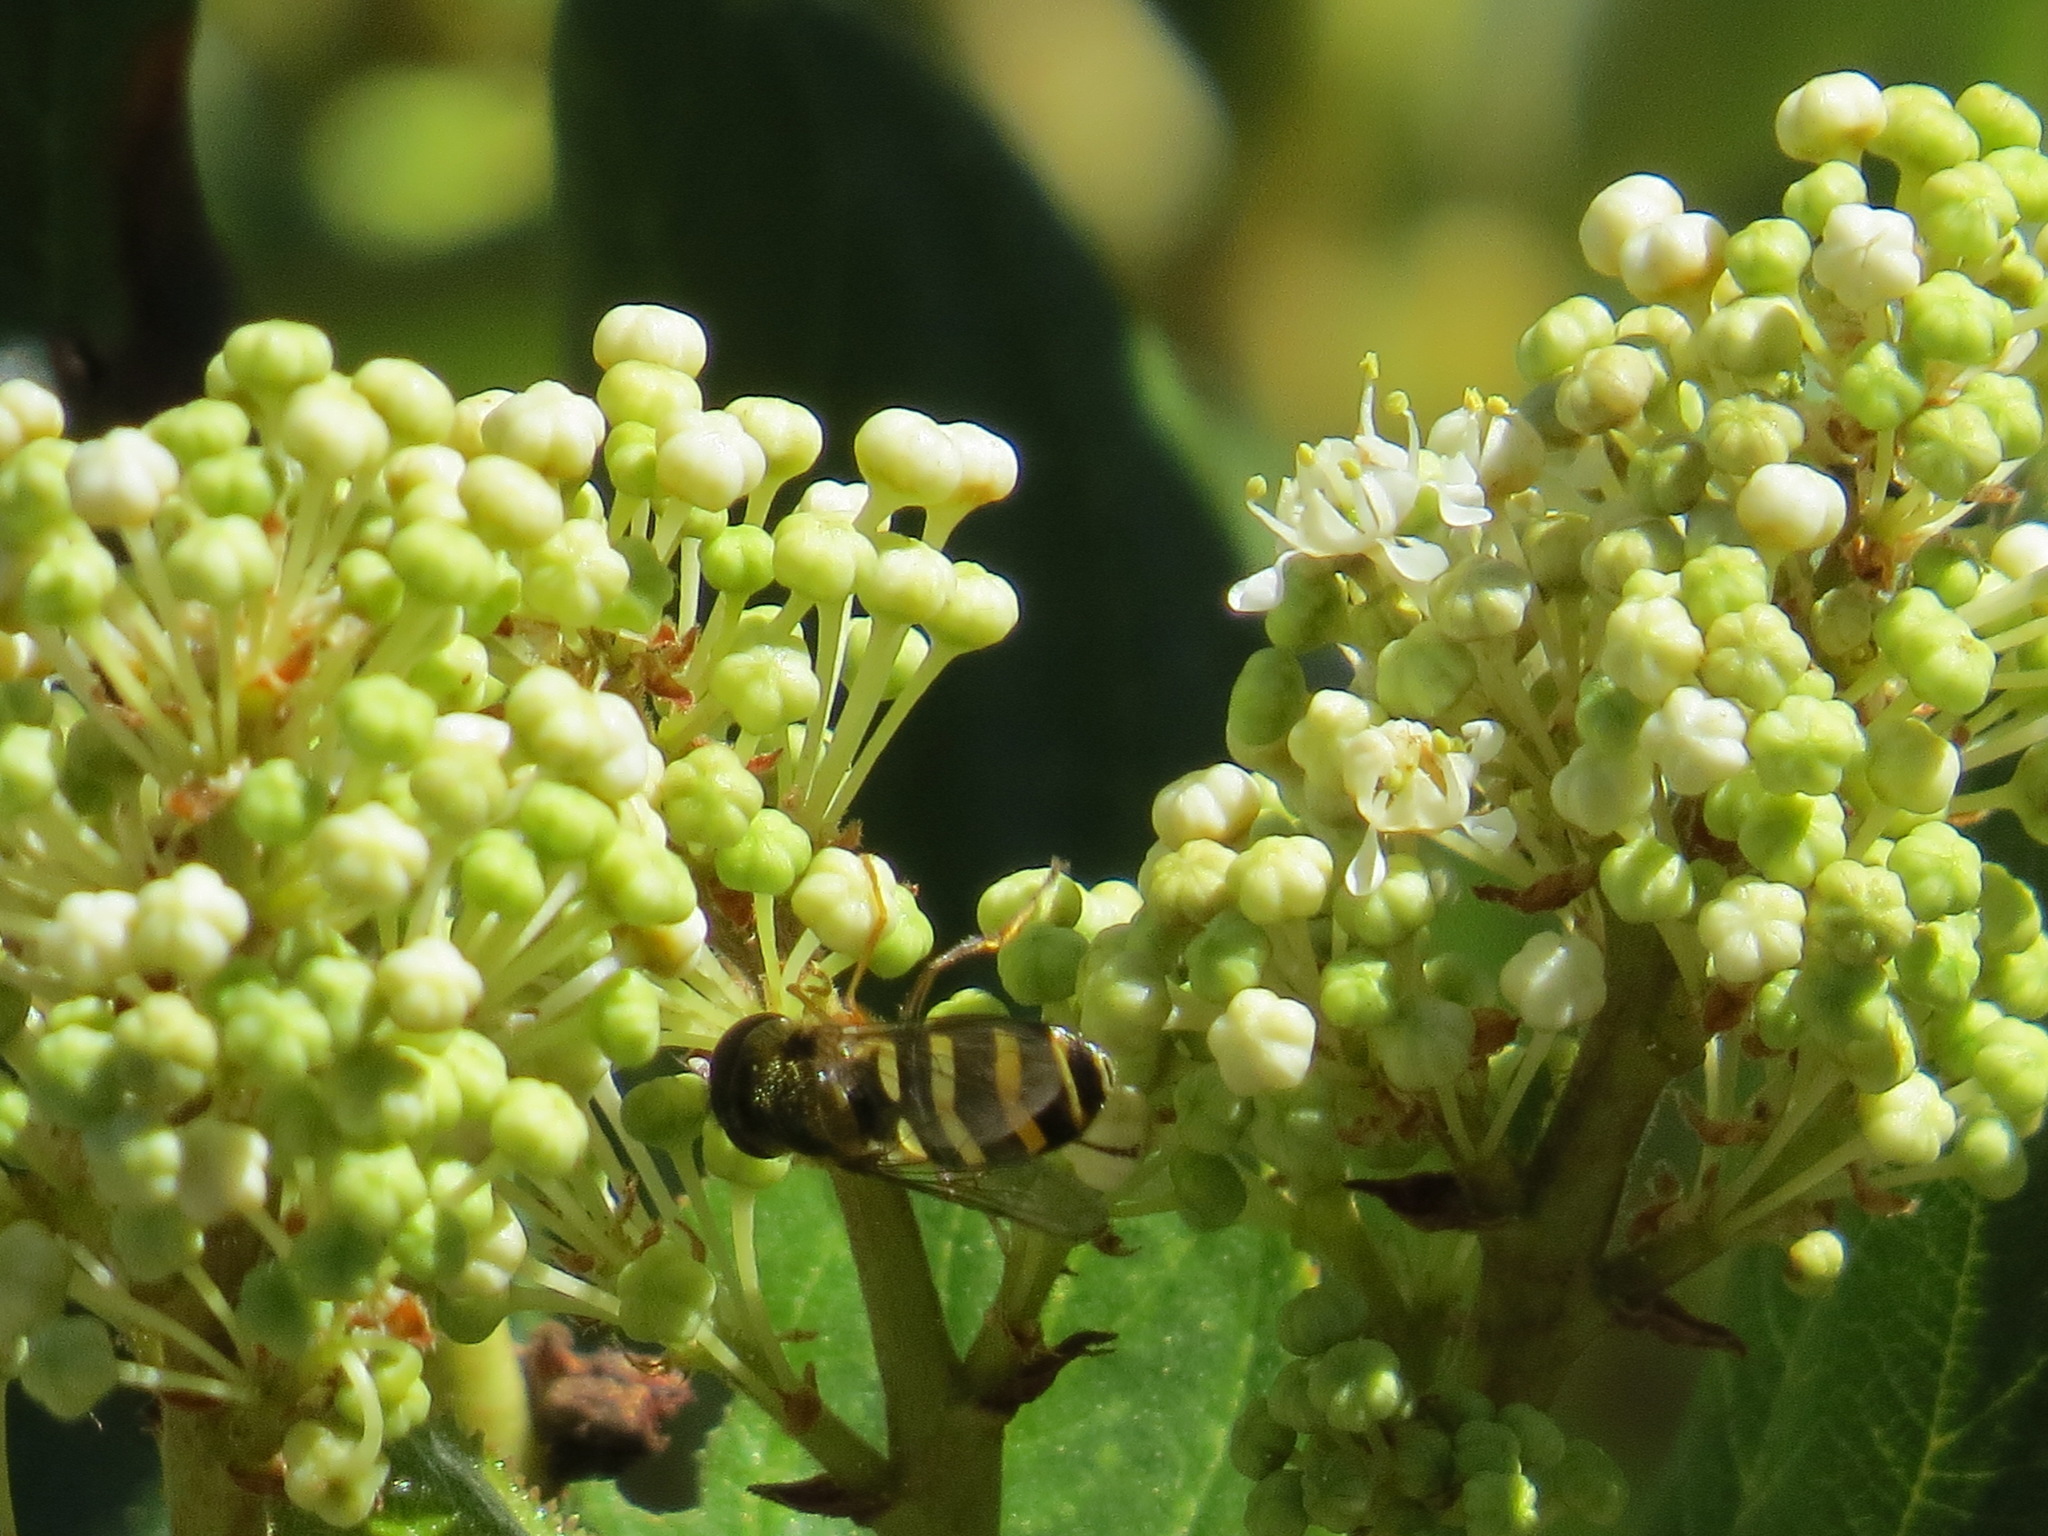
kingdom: Animalia
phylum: Arthropoda
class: Insecta
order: Diptera
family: Syrphidae
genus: Syrphus
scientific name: Syrphus opinator
